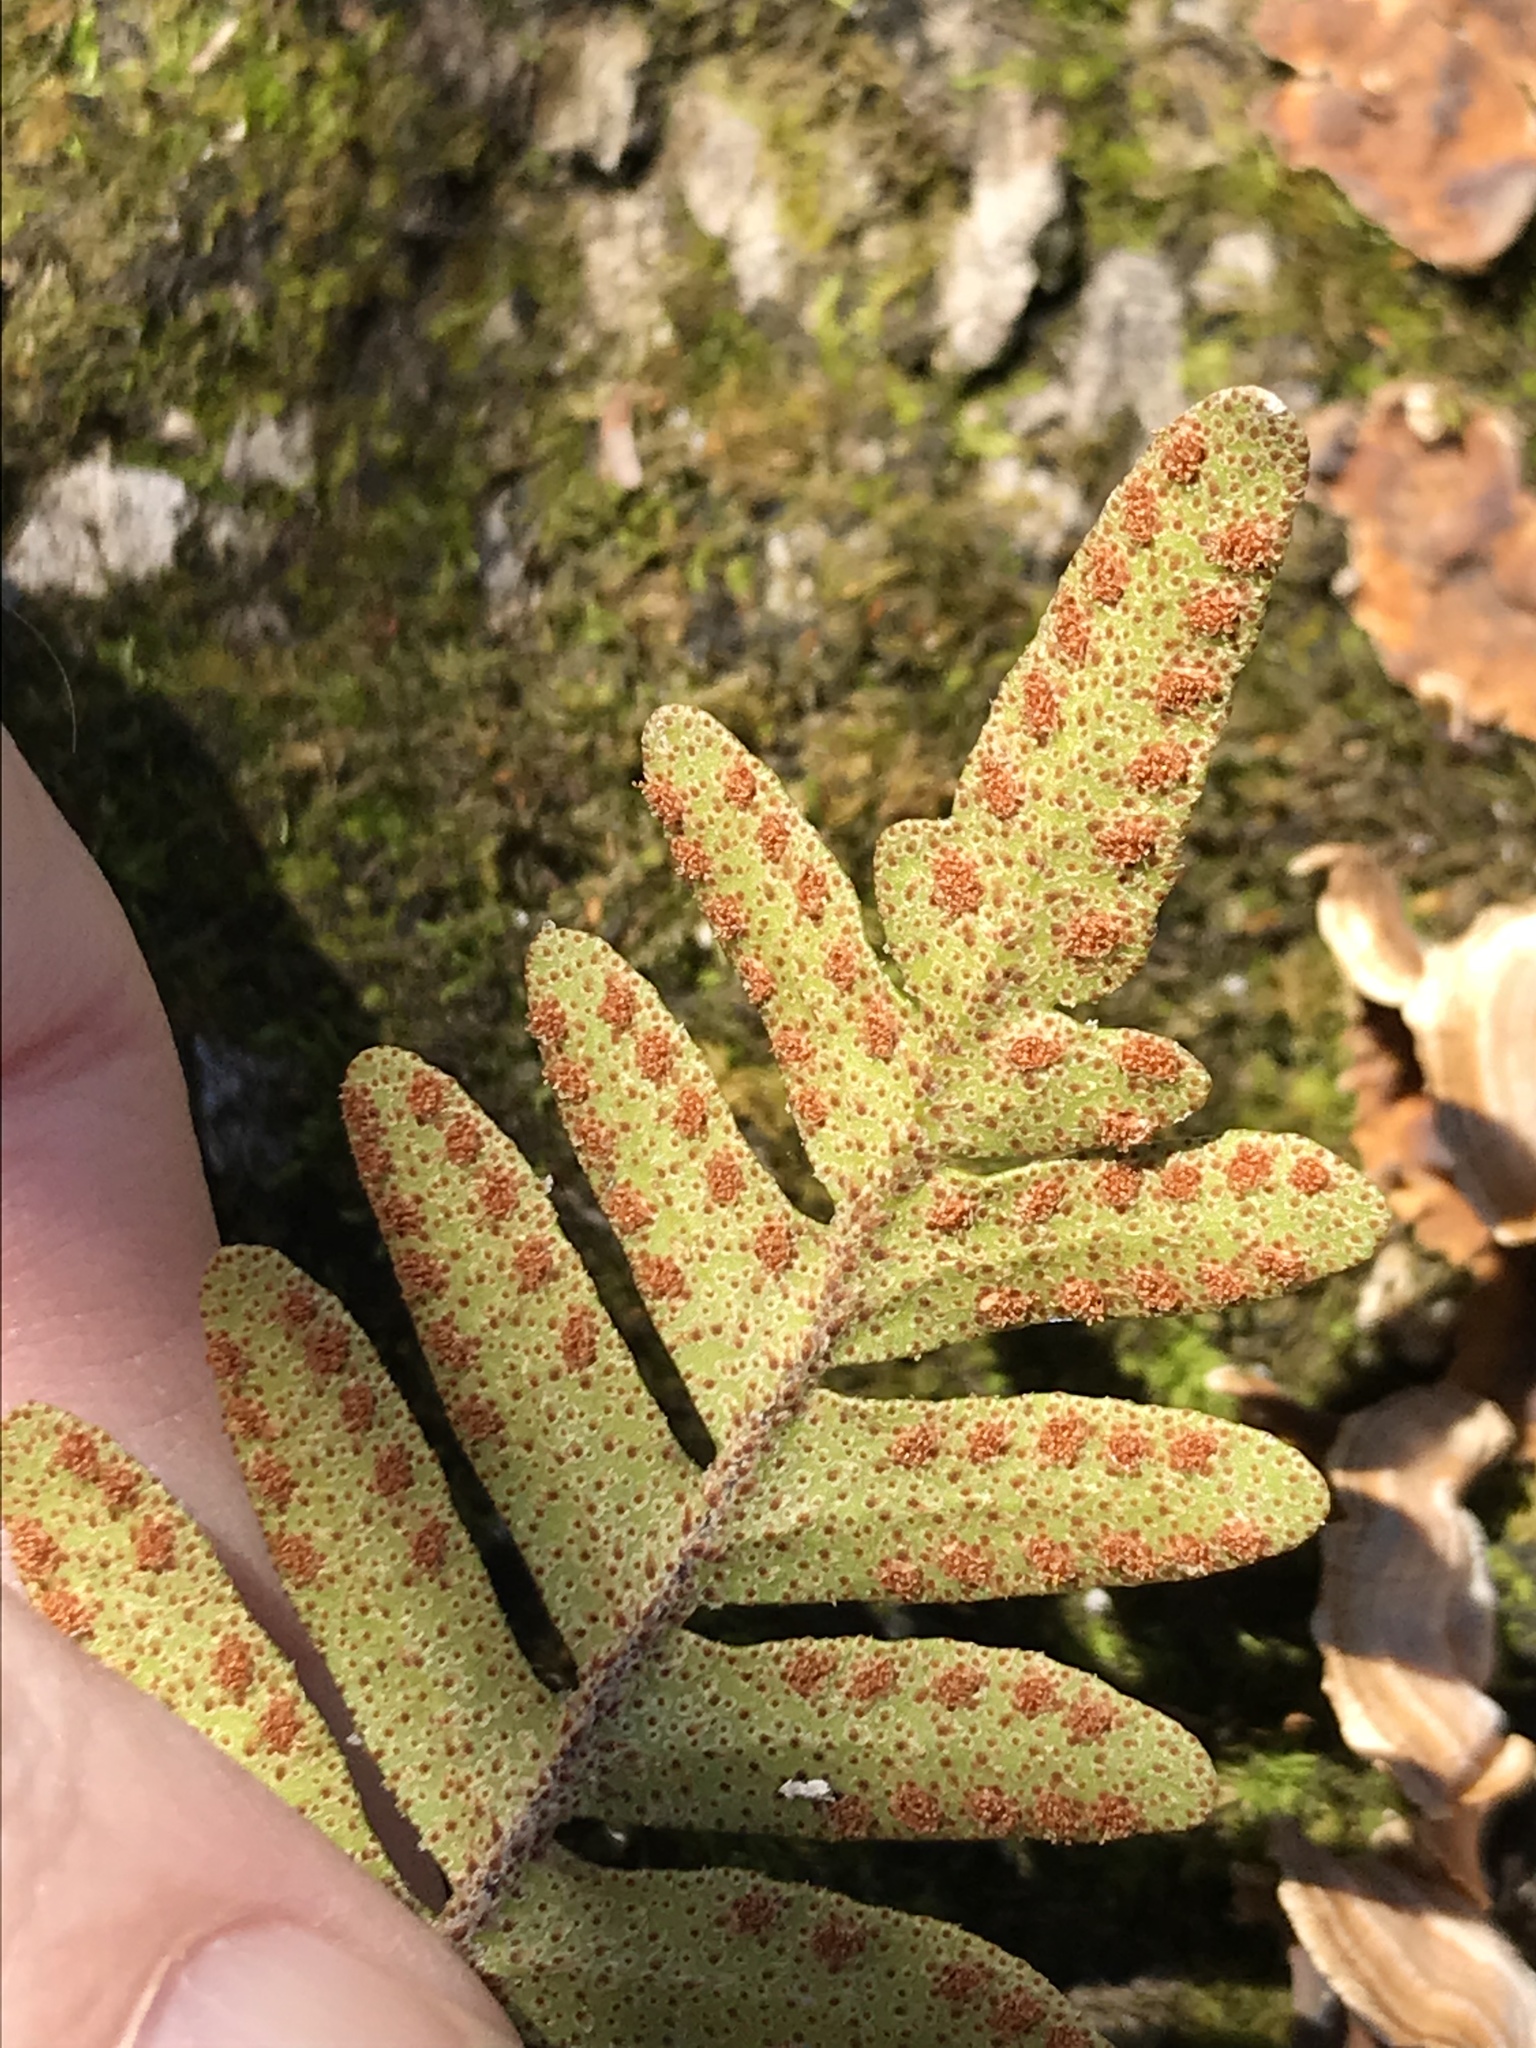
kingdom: Plantae
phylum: Tracheophyta
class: Polypodiopsida
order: Polypodiales
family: Polypodiaceae
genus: Pleopeltis
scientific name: Pleopeltis michauxiana
